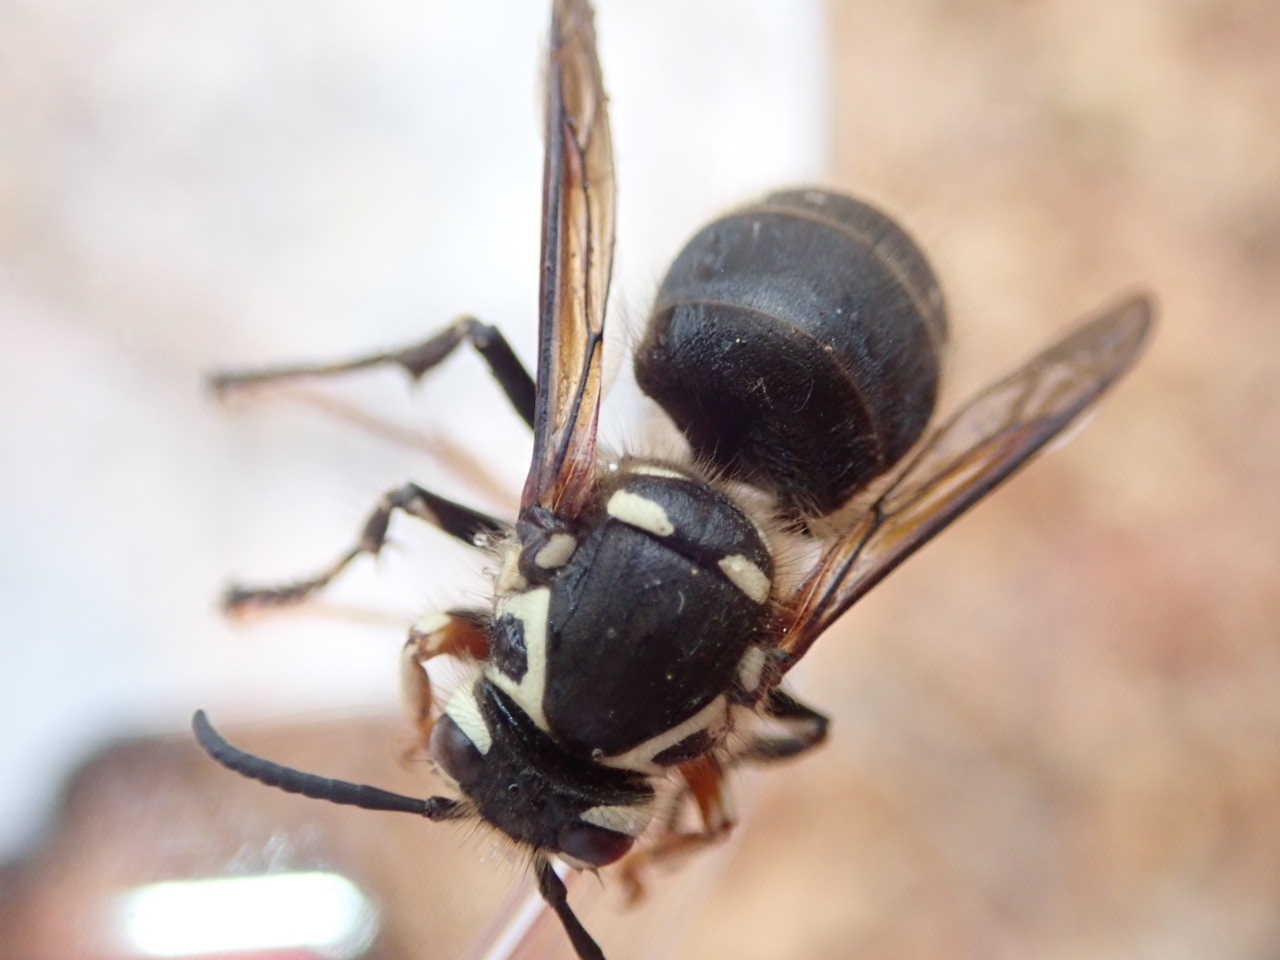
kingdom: Animalia
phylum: Arthropoda
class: Insecta
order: Hymenoptera
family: Vespidae
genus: Dolichovespula
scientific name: Dolichovespula maculata
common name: Bald-faced hornet
